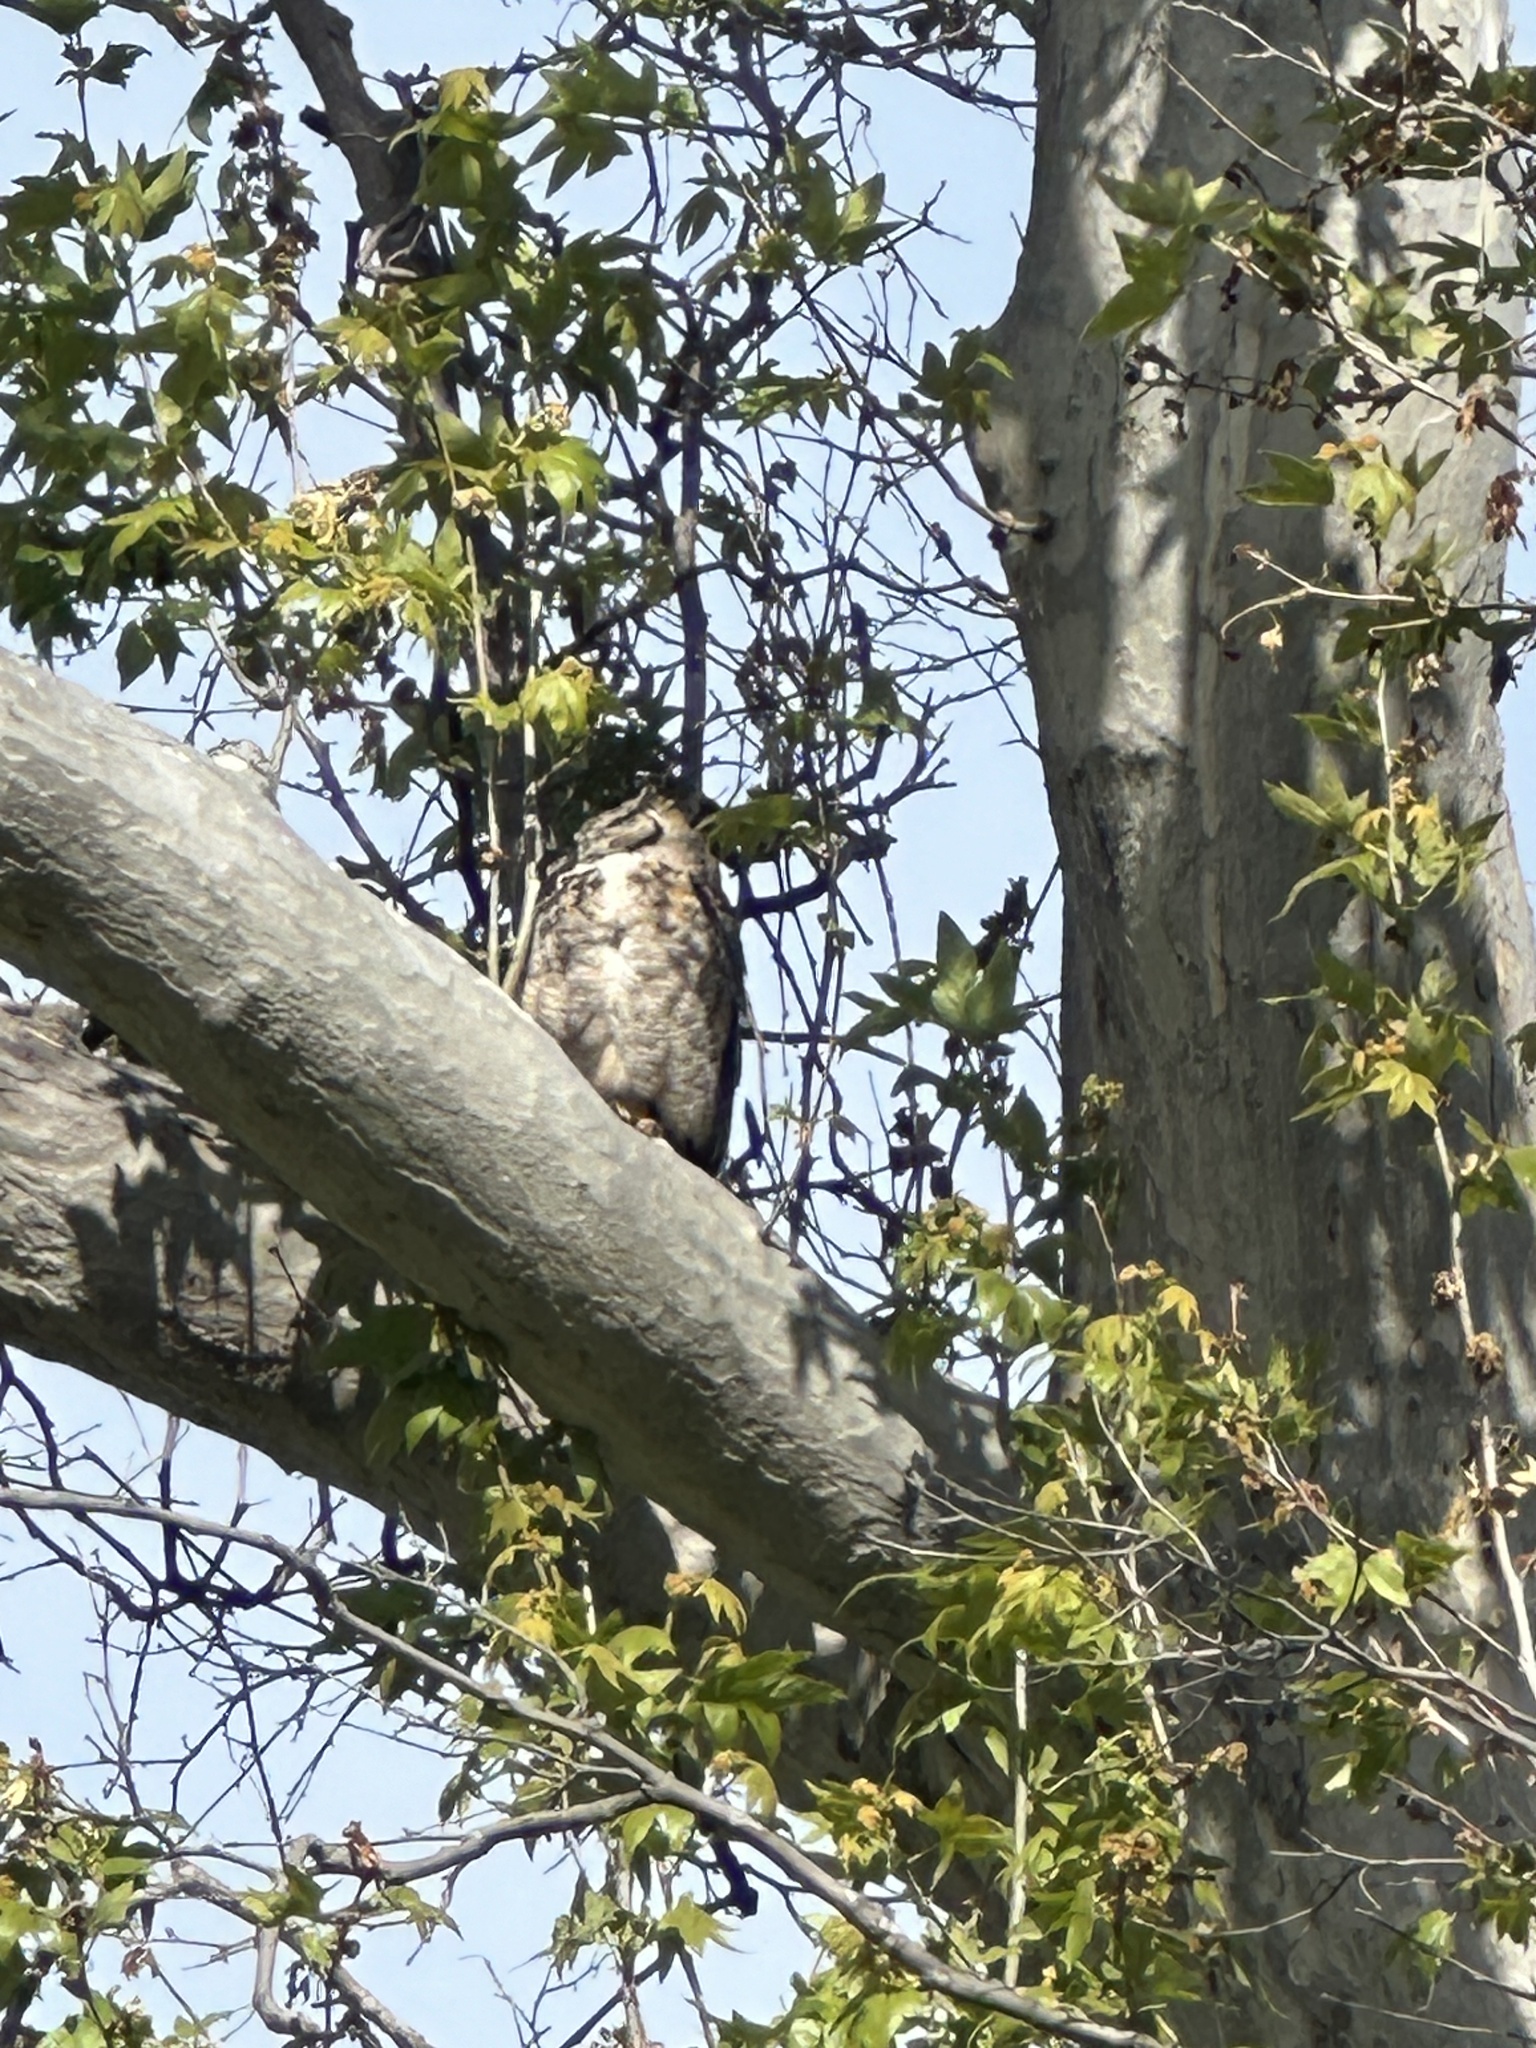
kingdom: Animalia
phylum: Chordata
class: Aves
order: Strigiformes
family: Strigidae
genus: Bubo
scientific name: Bubo virginianus
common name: Great horned owl
